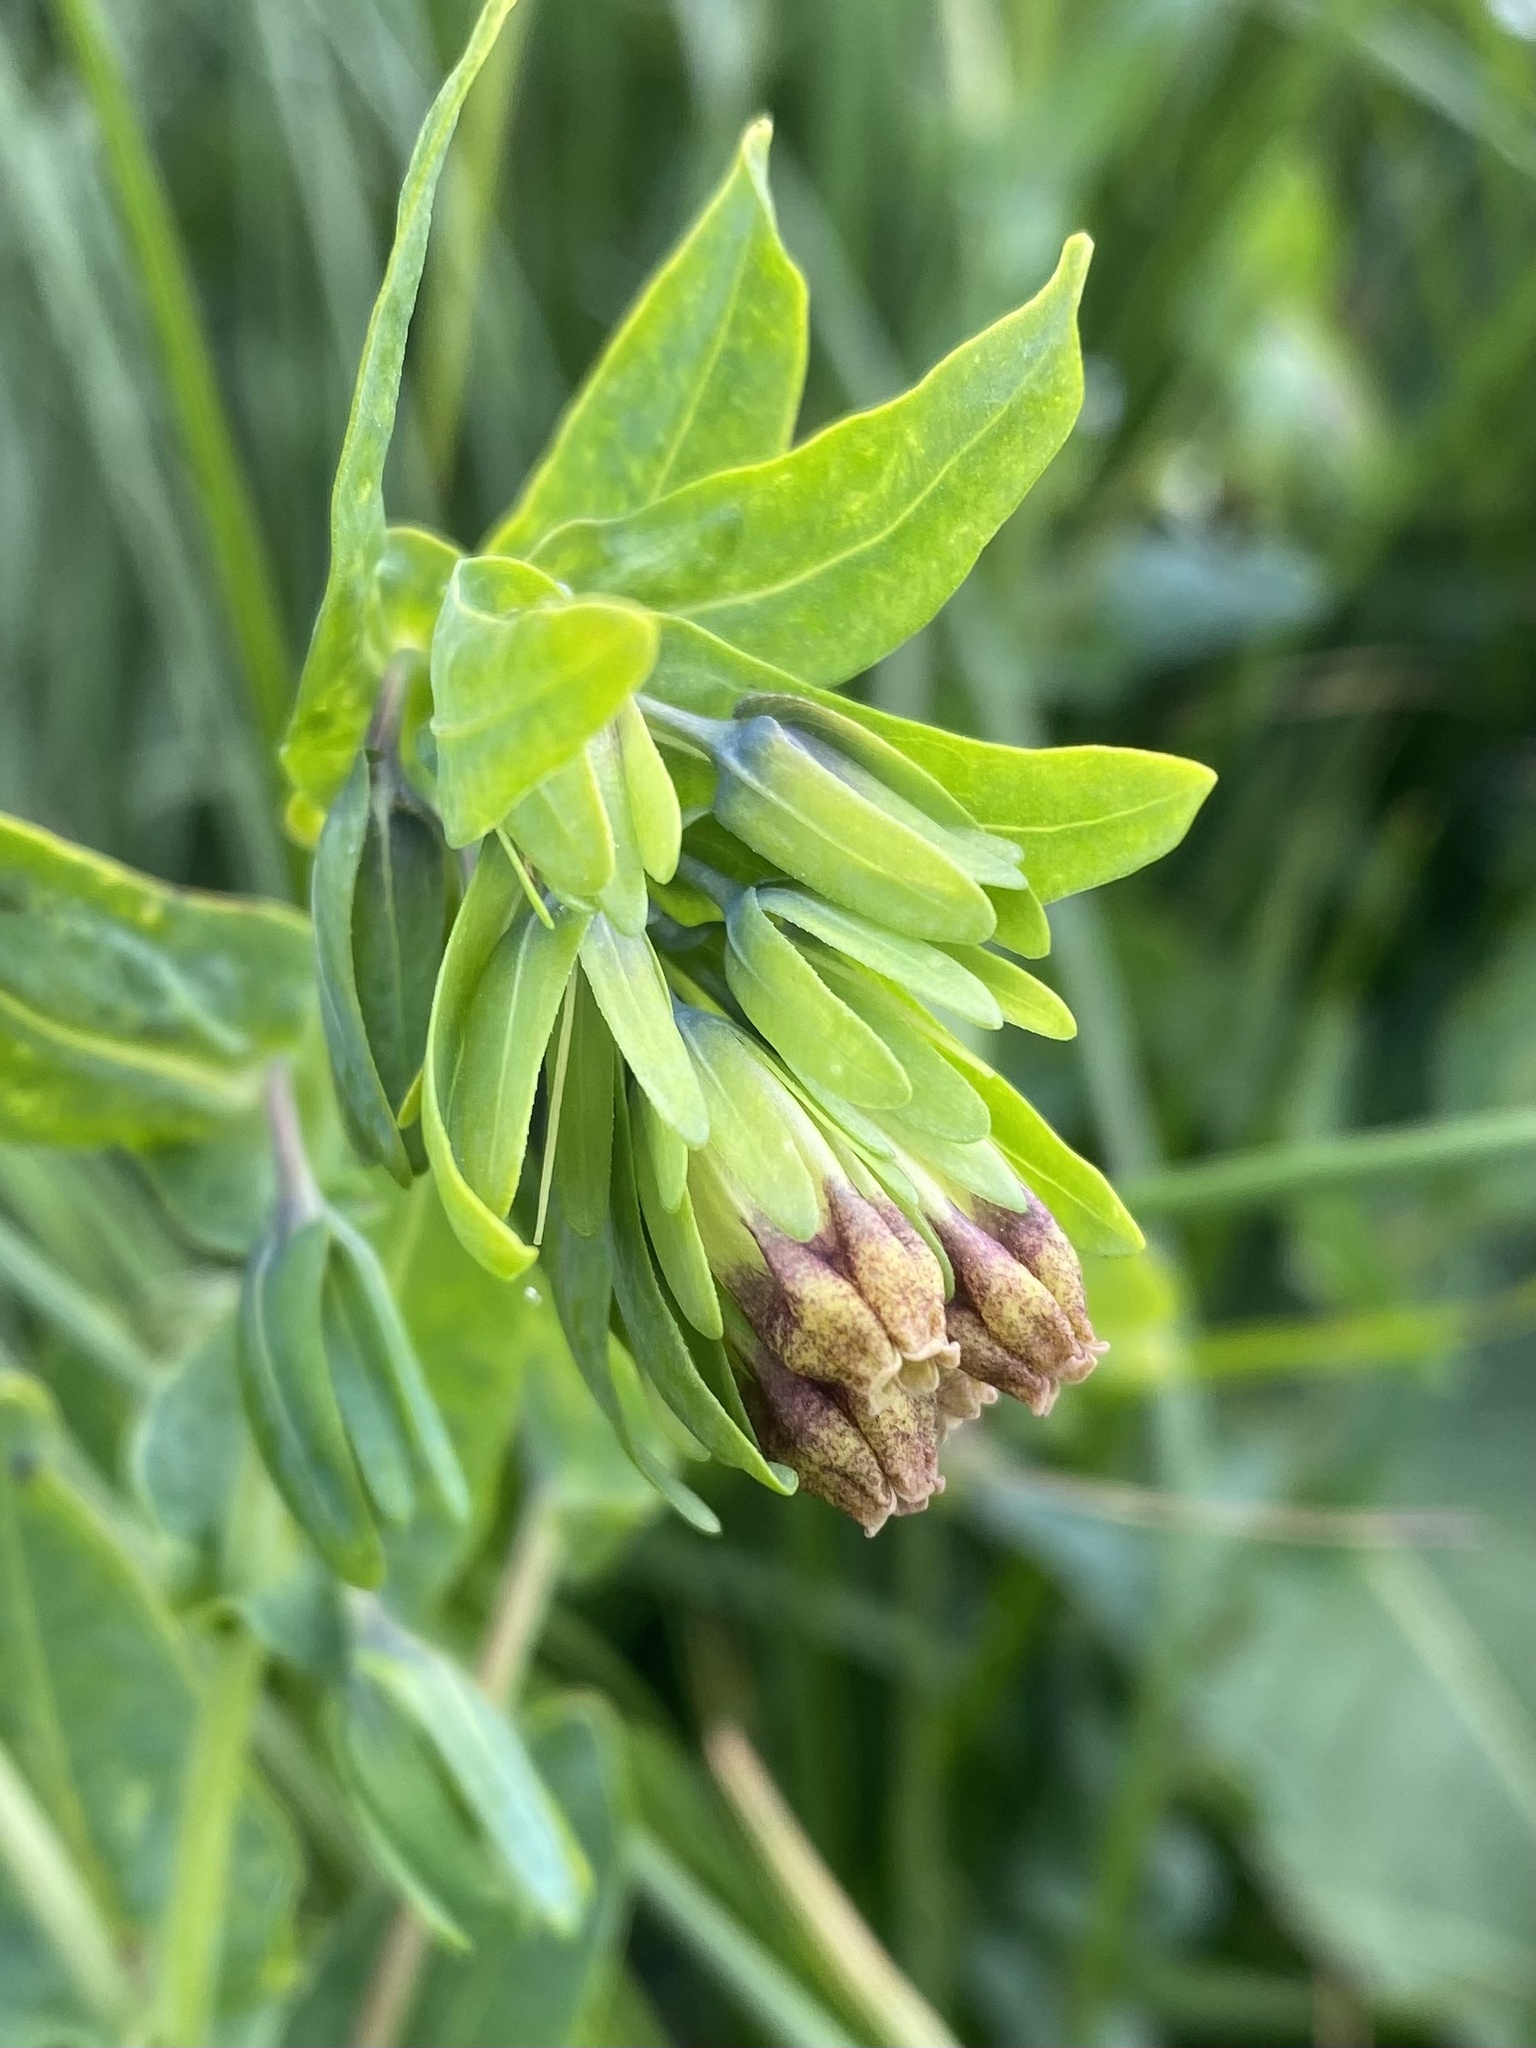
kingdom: Plantae
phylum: Tracheophyta
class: Magnoliopsida
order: Boraginales
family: Boraginaceae
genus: Cerinthe
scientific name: Cerinthe glabra
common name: Smooth honeywort
